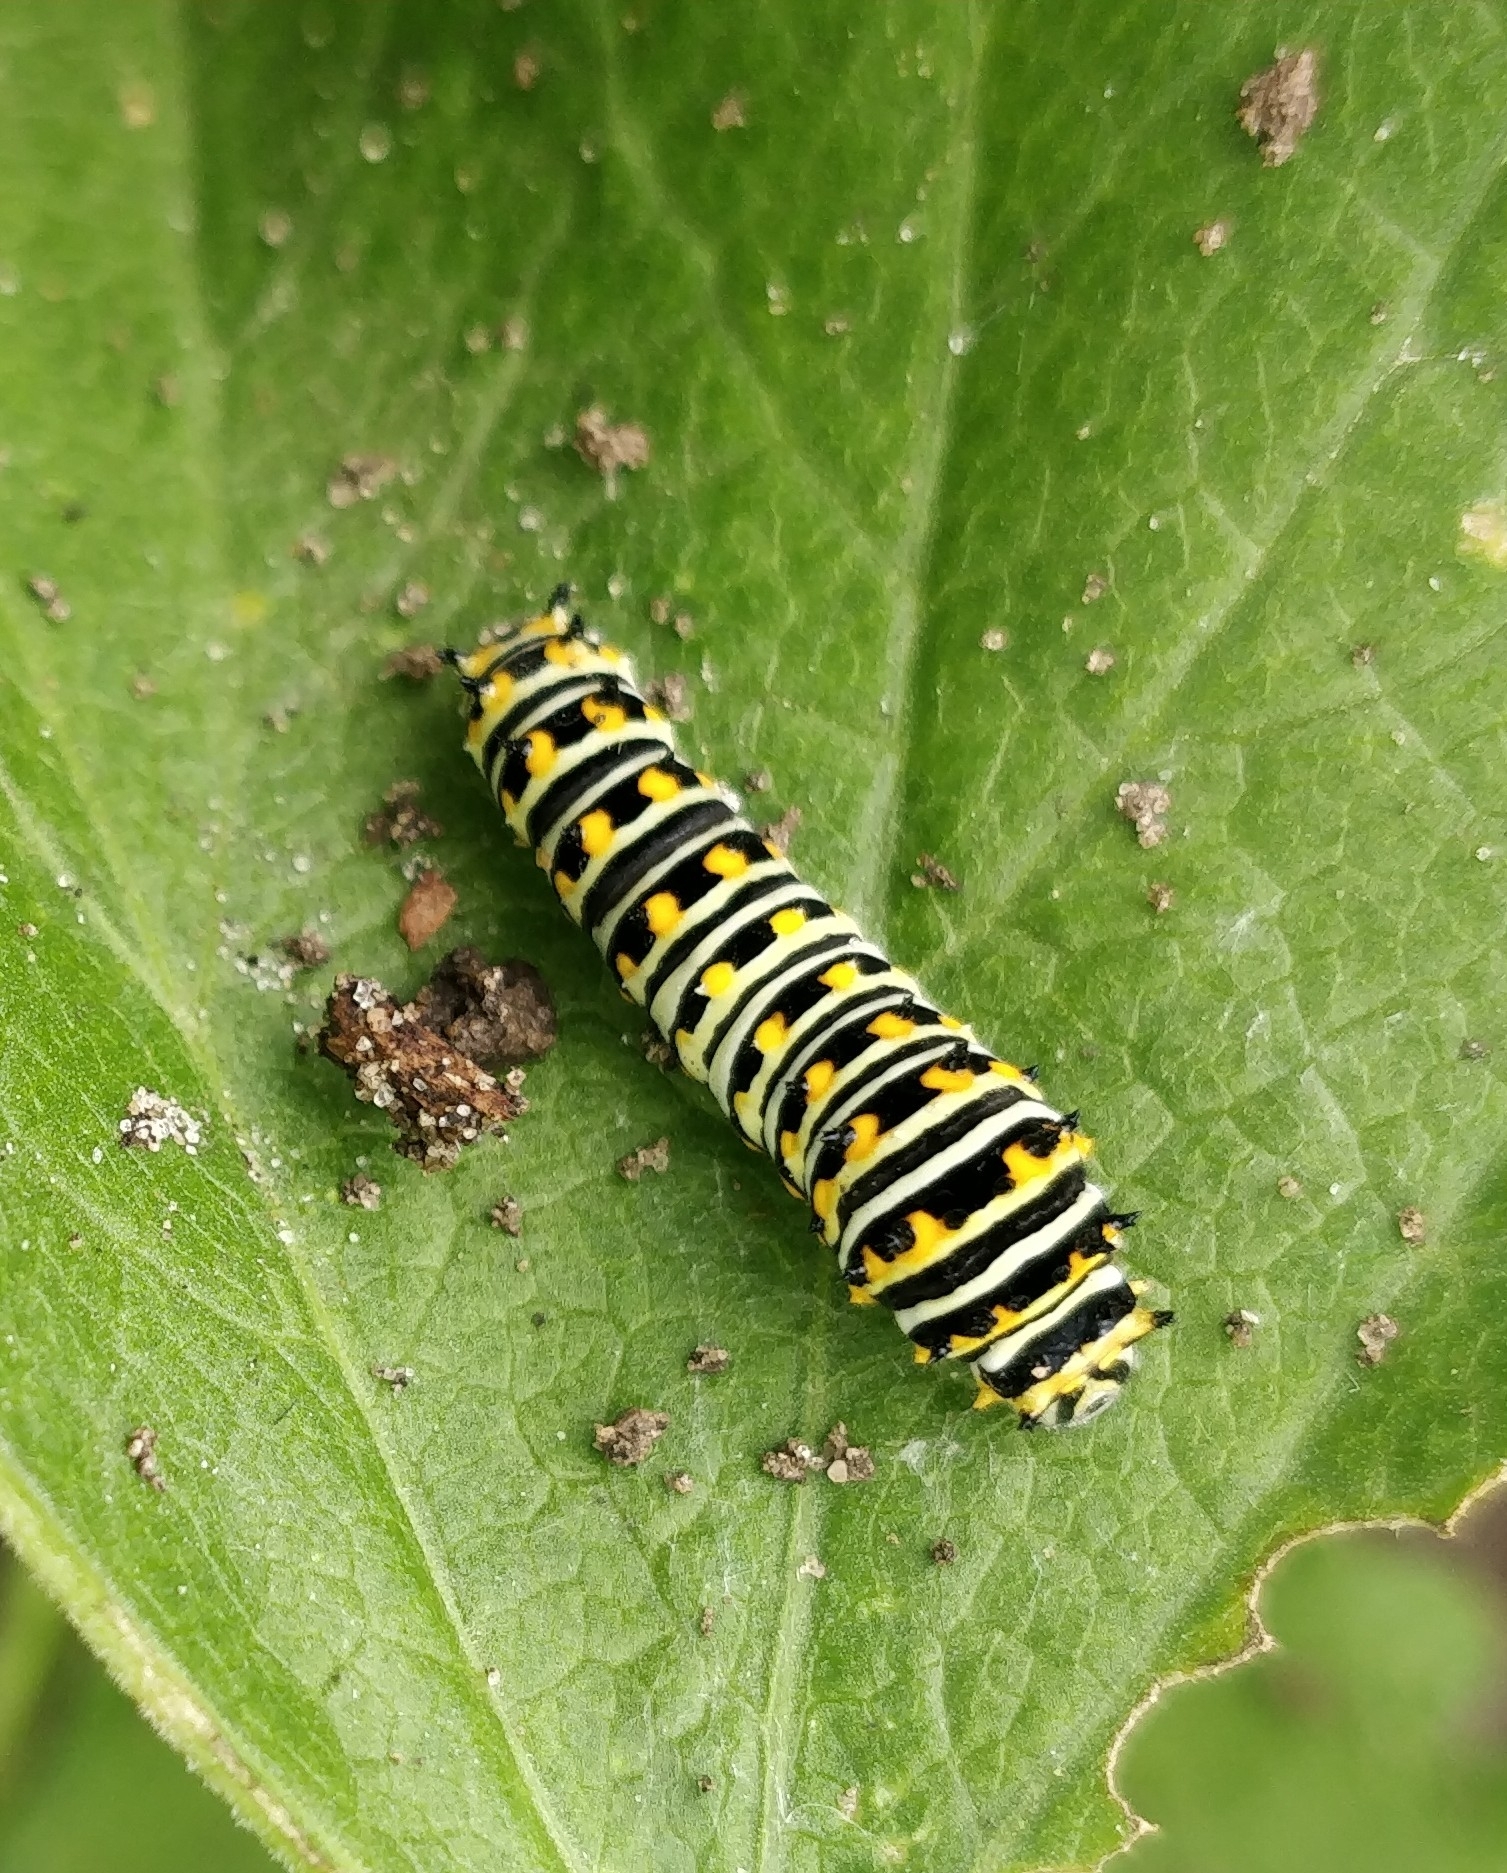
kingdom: Animalia
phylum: Arthropoda
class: Insecta
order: Lepidoptera
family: Papilionidae
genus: Papilio
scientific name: Papilio polyxenes
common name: Black swallowtail
